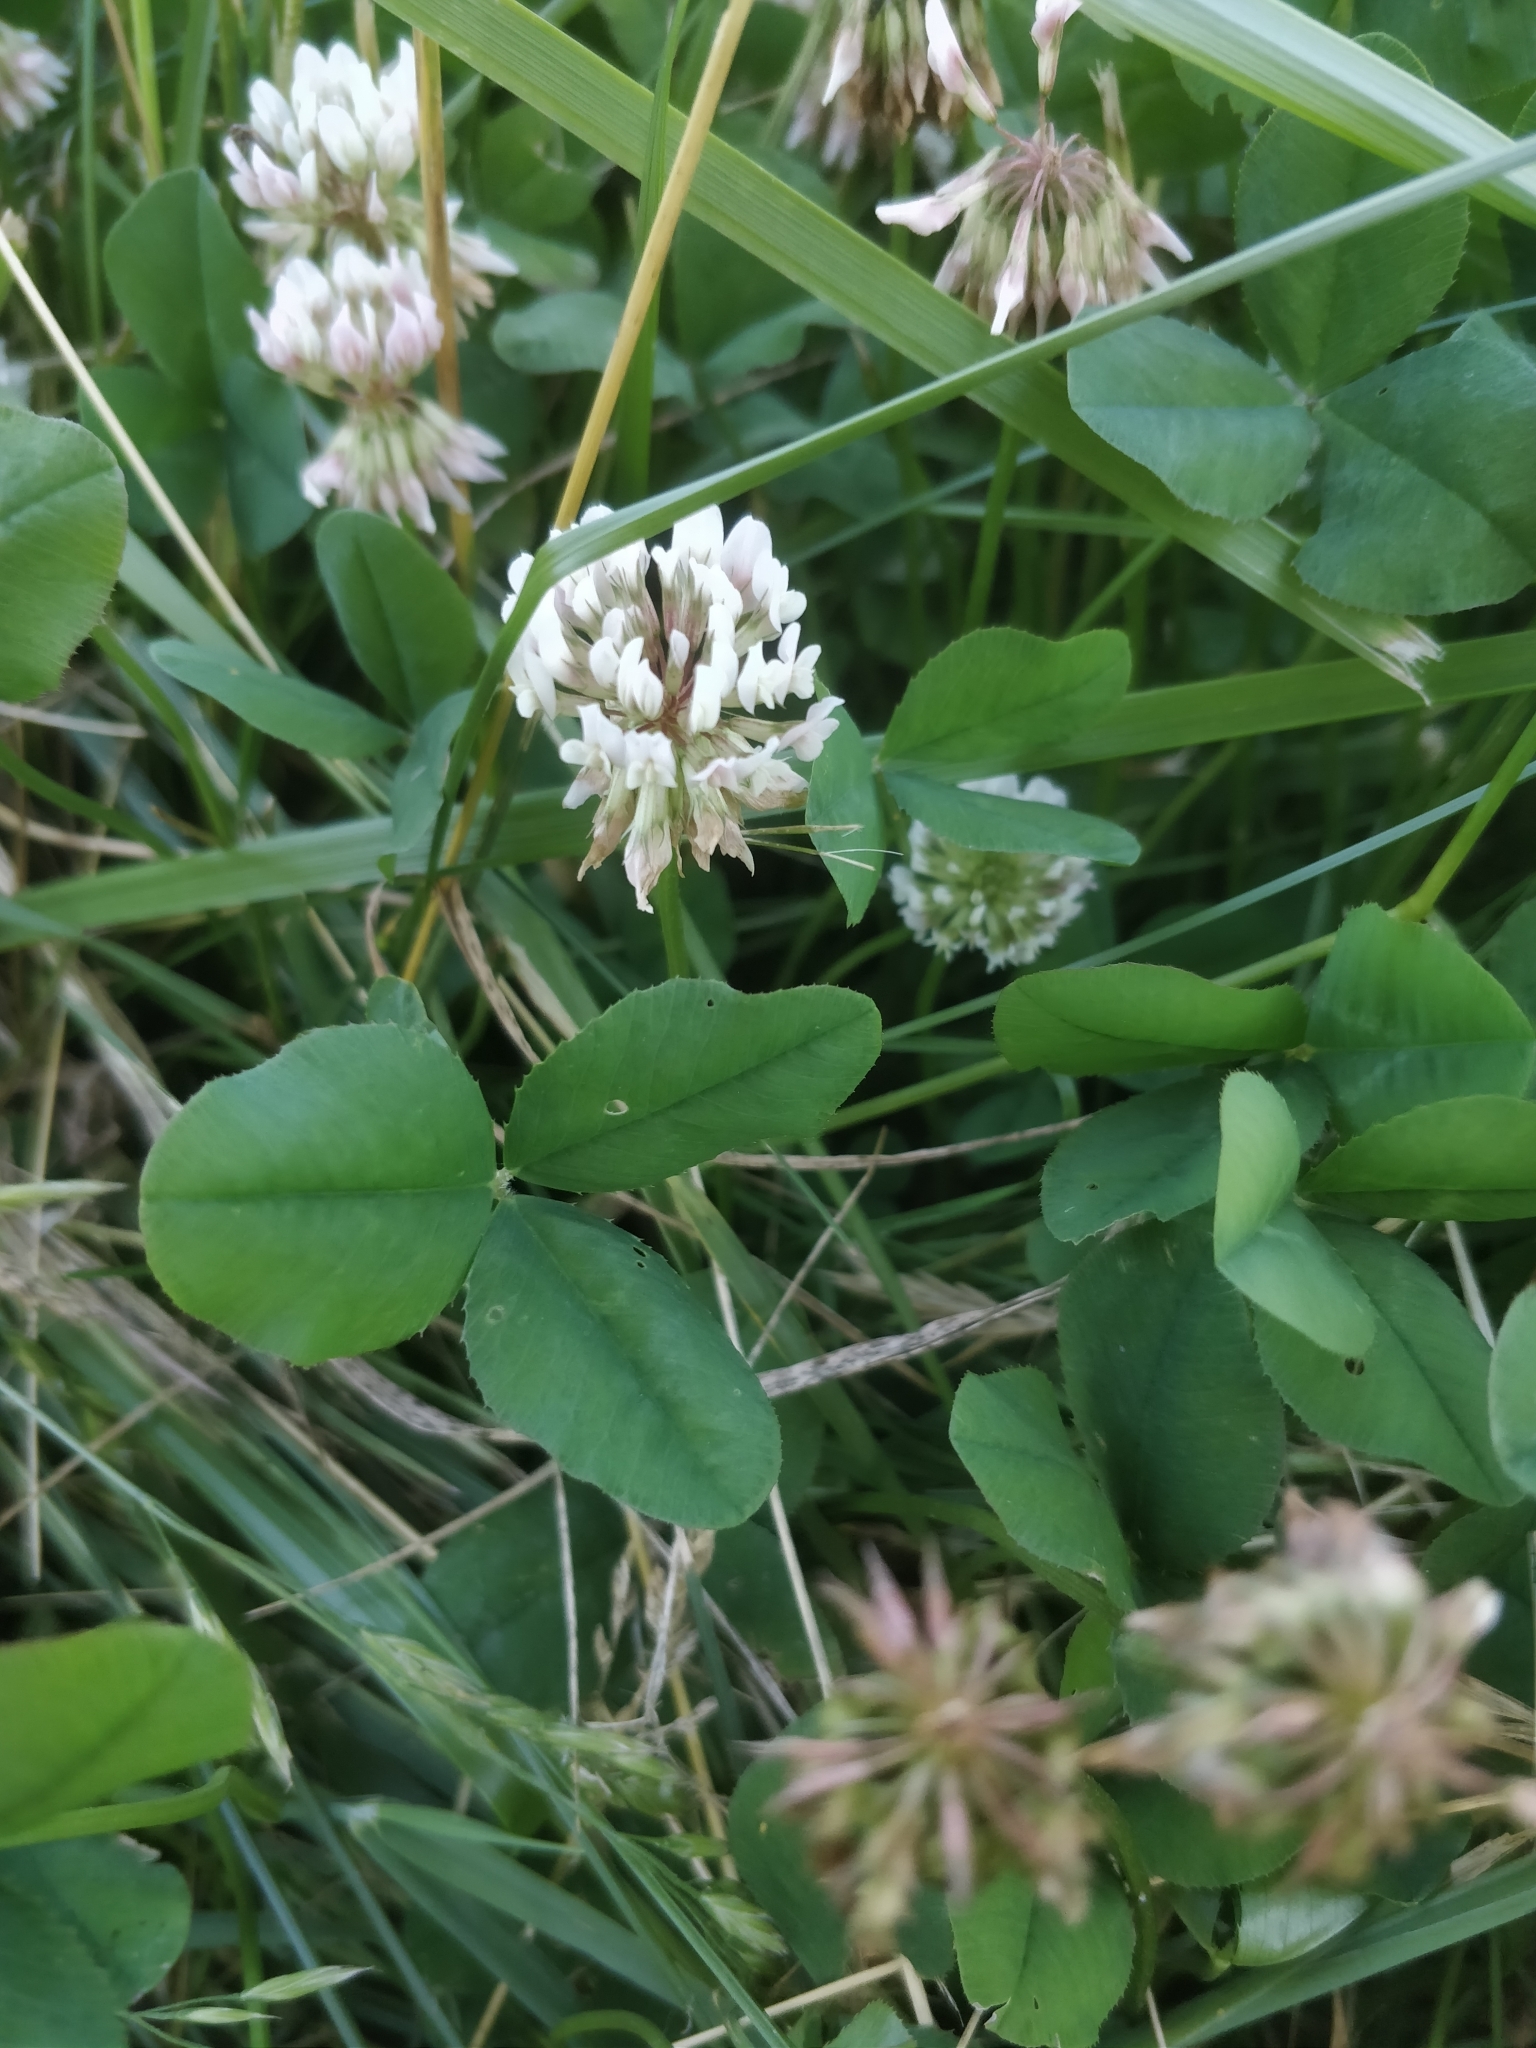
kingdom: Plantae
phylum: Tracheophyta
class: Magnoliopsida
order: Fabales
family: Fabaceae
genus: Trifolium
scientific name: Trifolium repens
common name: White clover
